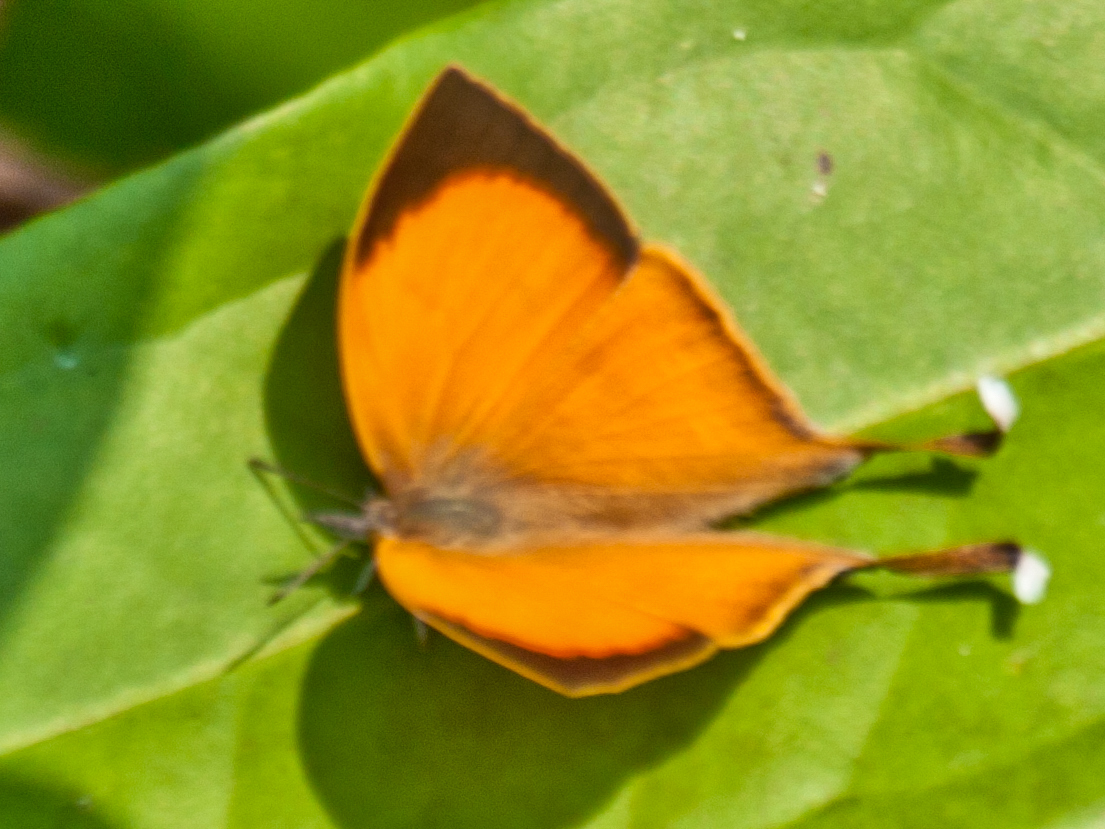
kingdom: Animalia
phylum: Arthropoda
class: Insecta
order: Lepidoptera
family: Lycaenidae
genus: Loxura
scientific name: Loxura atymnus
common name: Common yamfly
